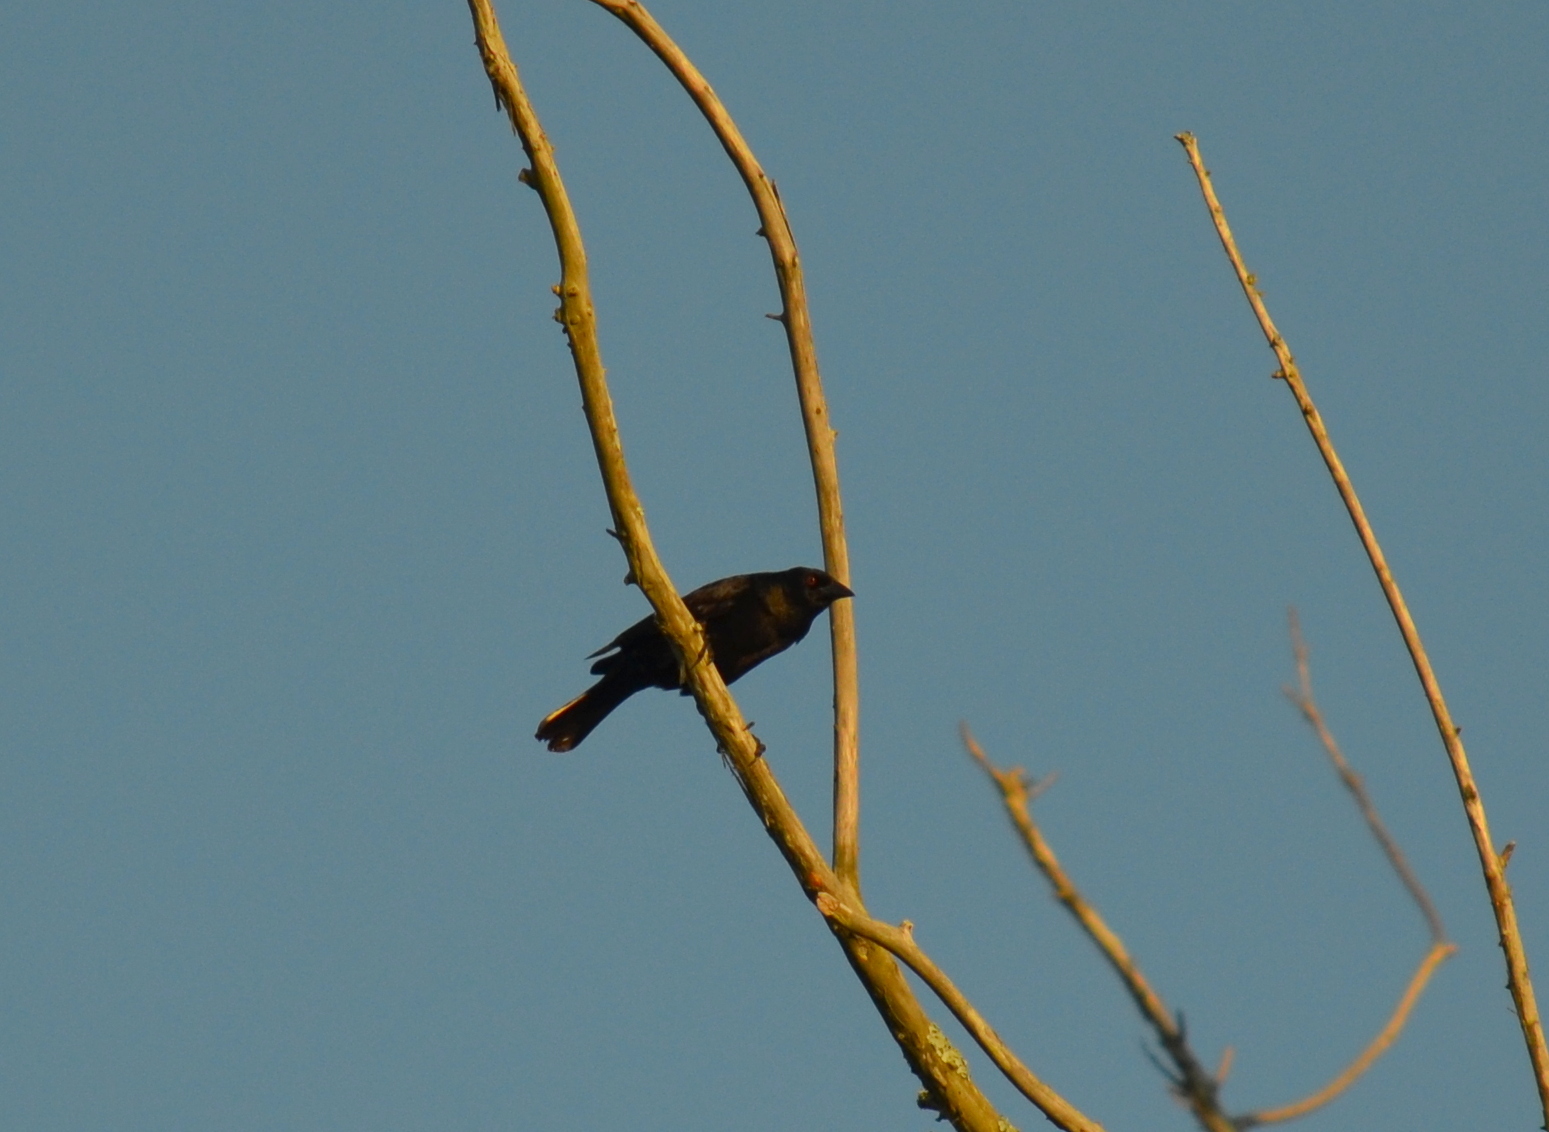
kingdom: Animalia
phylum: Chordata
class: Aves
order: Passeriformes
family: Icteridae
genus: Molothrus
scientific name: Molothrus aeneus
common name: Bronzed cowbird
